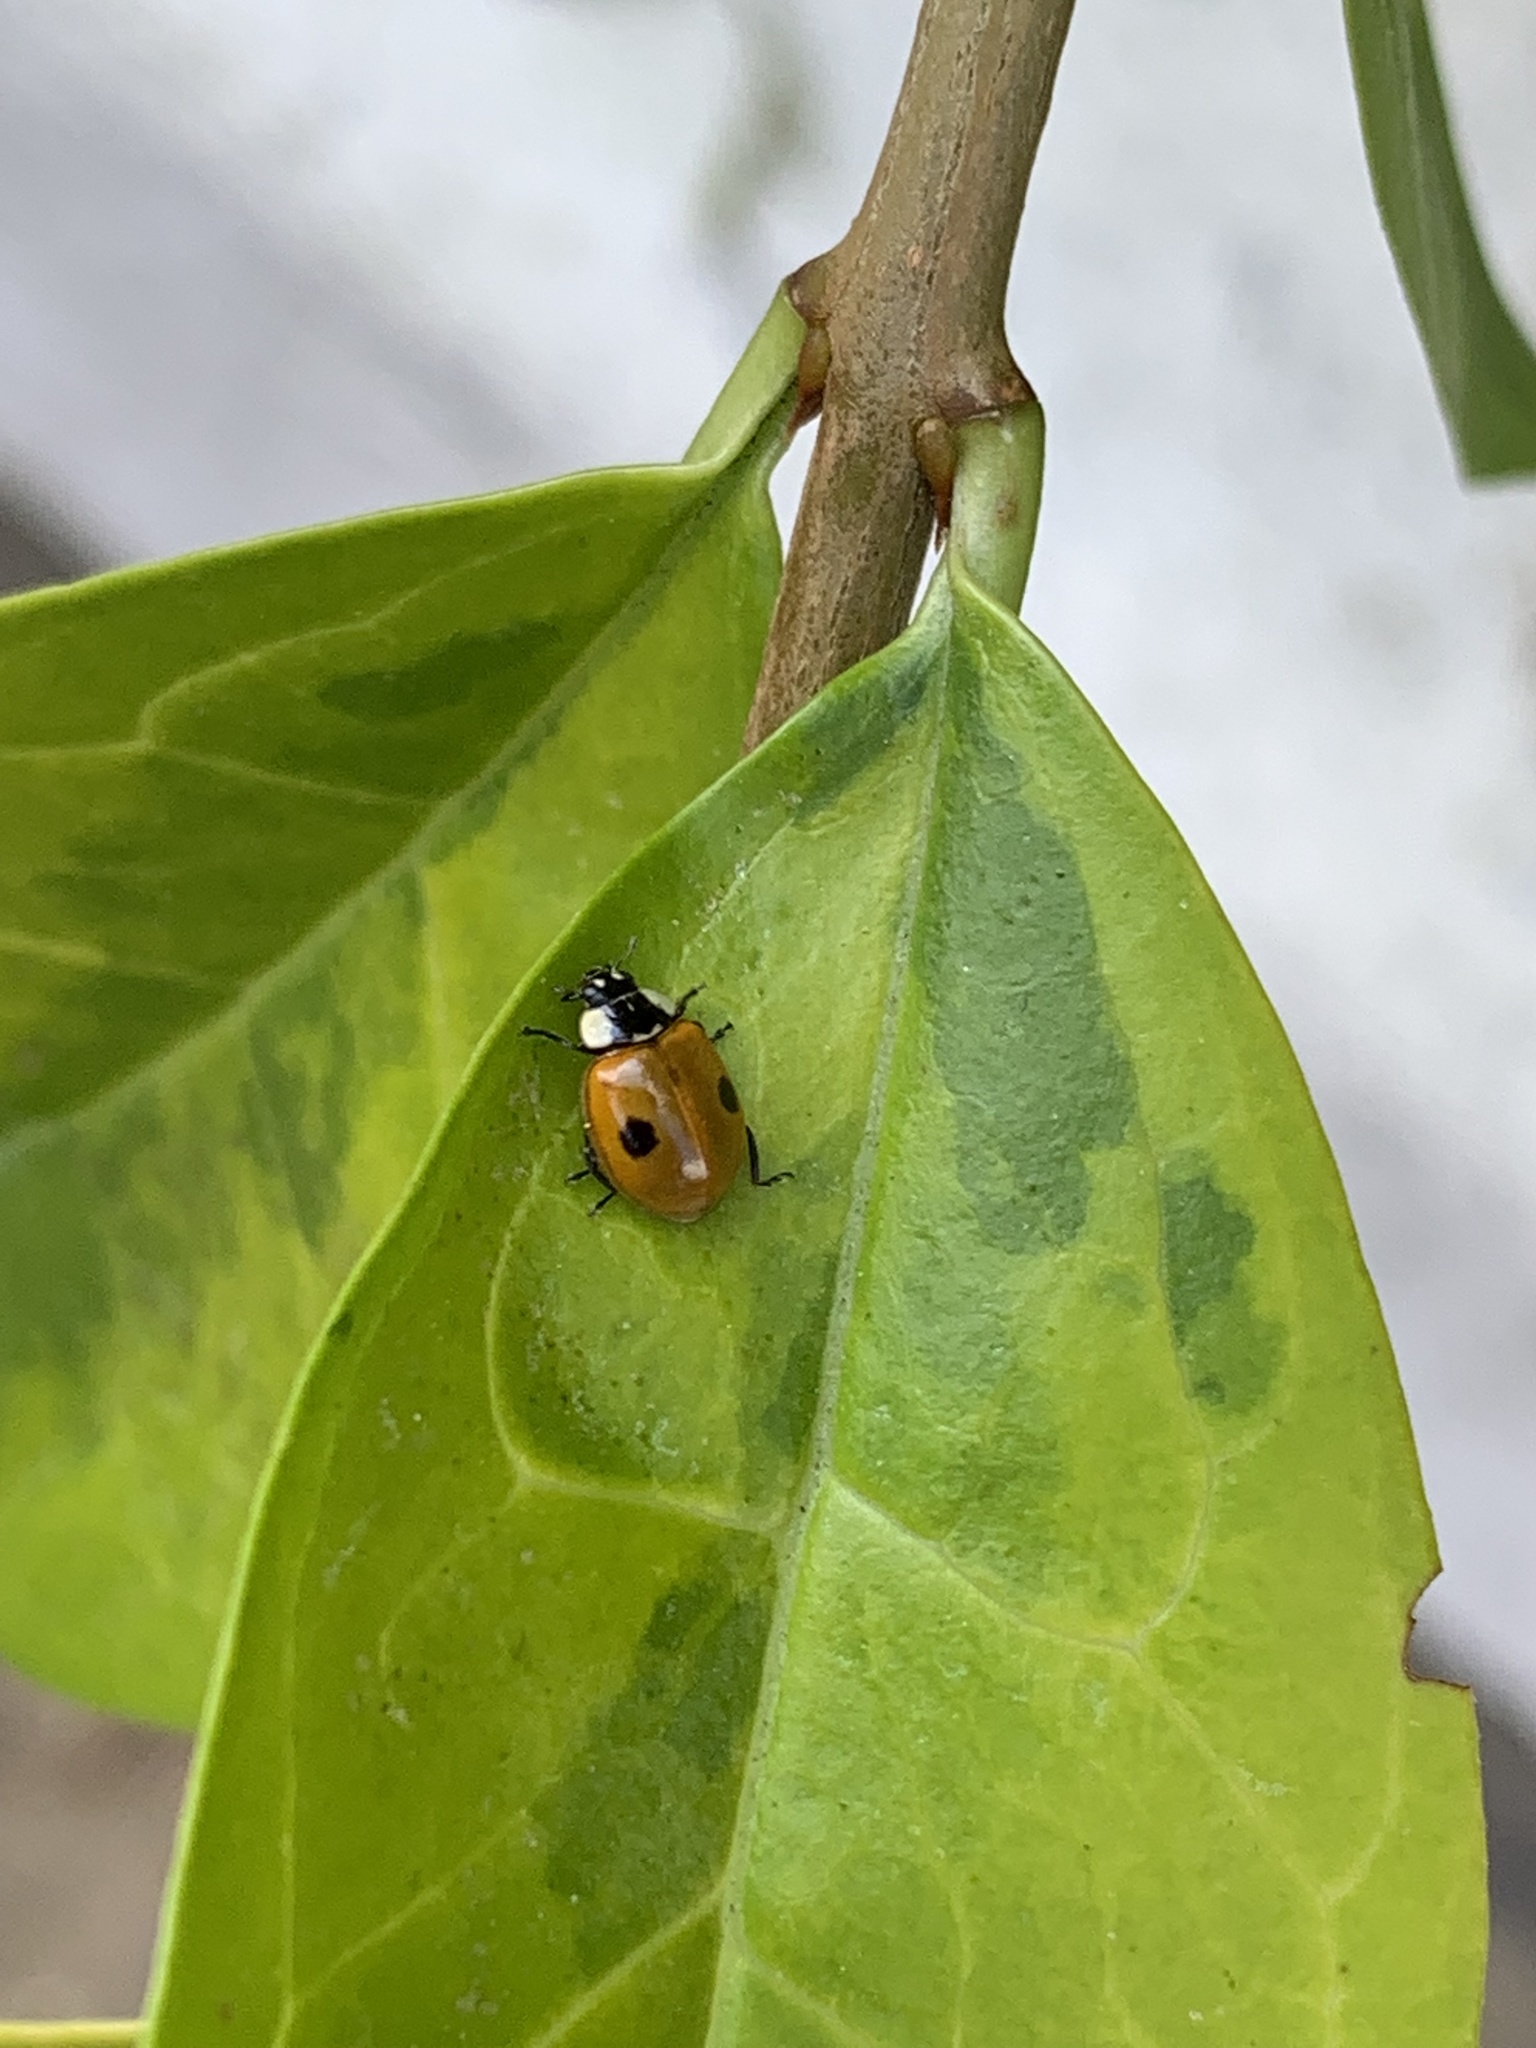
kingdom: Animalia
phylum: Arthropoda
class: Insecta
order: Coleoptera
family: Coccinellidae
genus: Adalia
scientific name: Adalia bipunctata
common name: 2-spot ladybird
